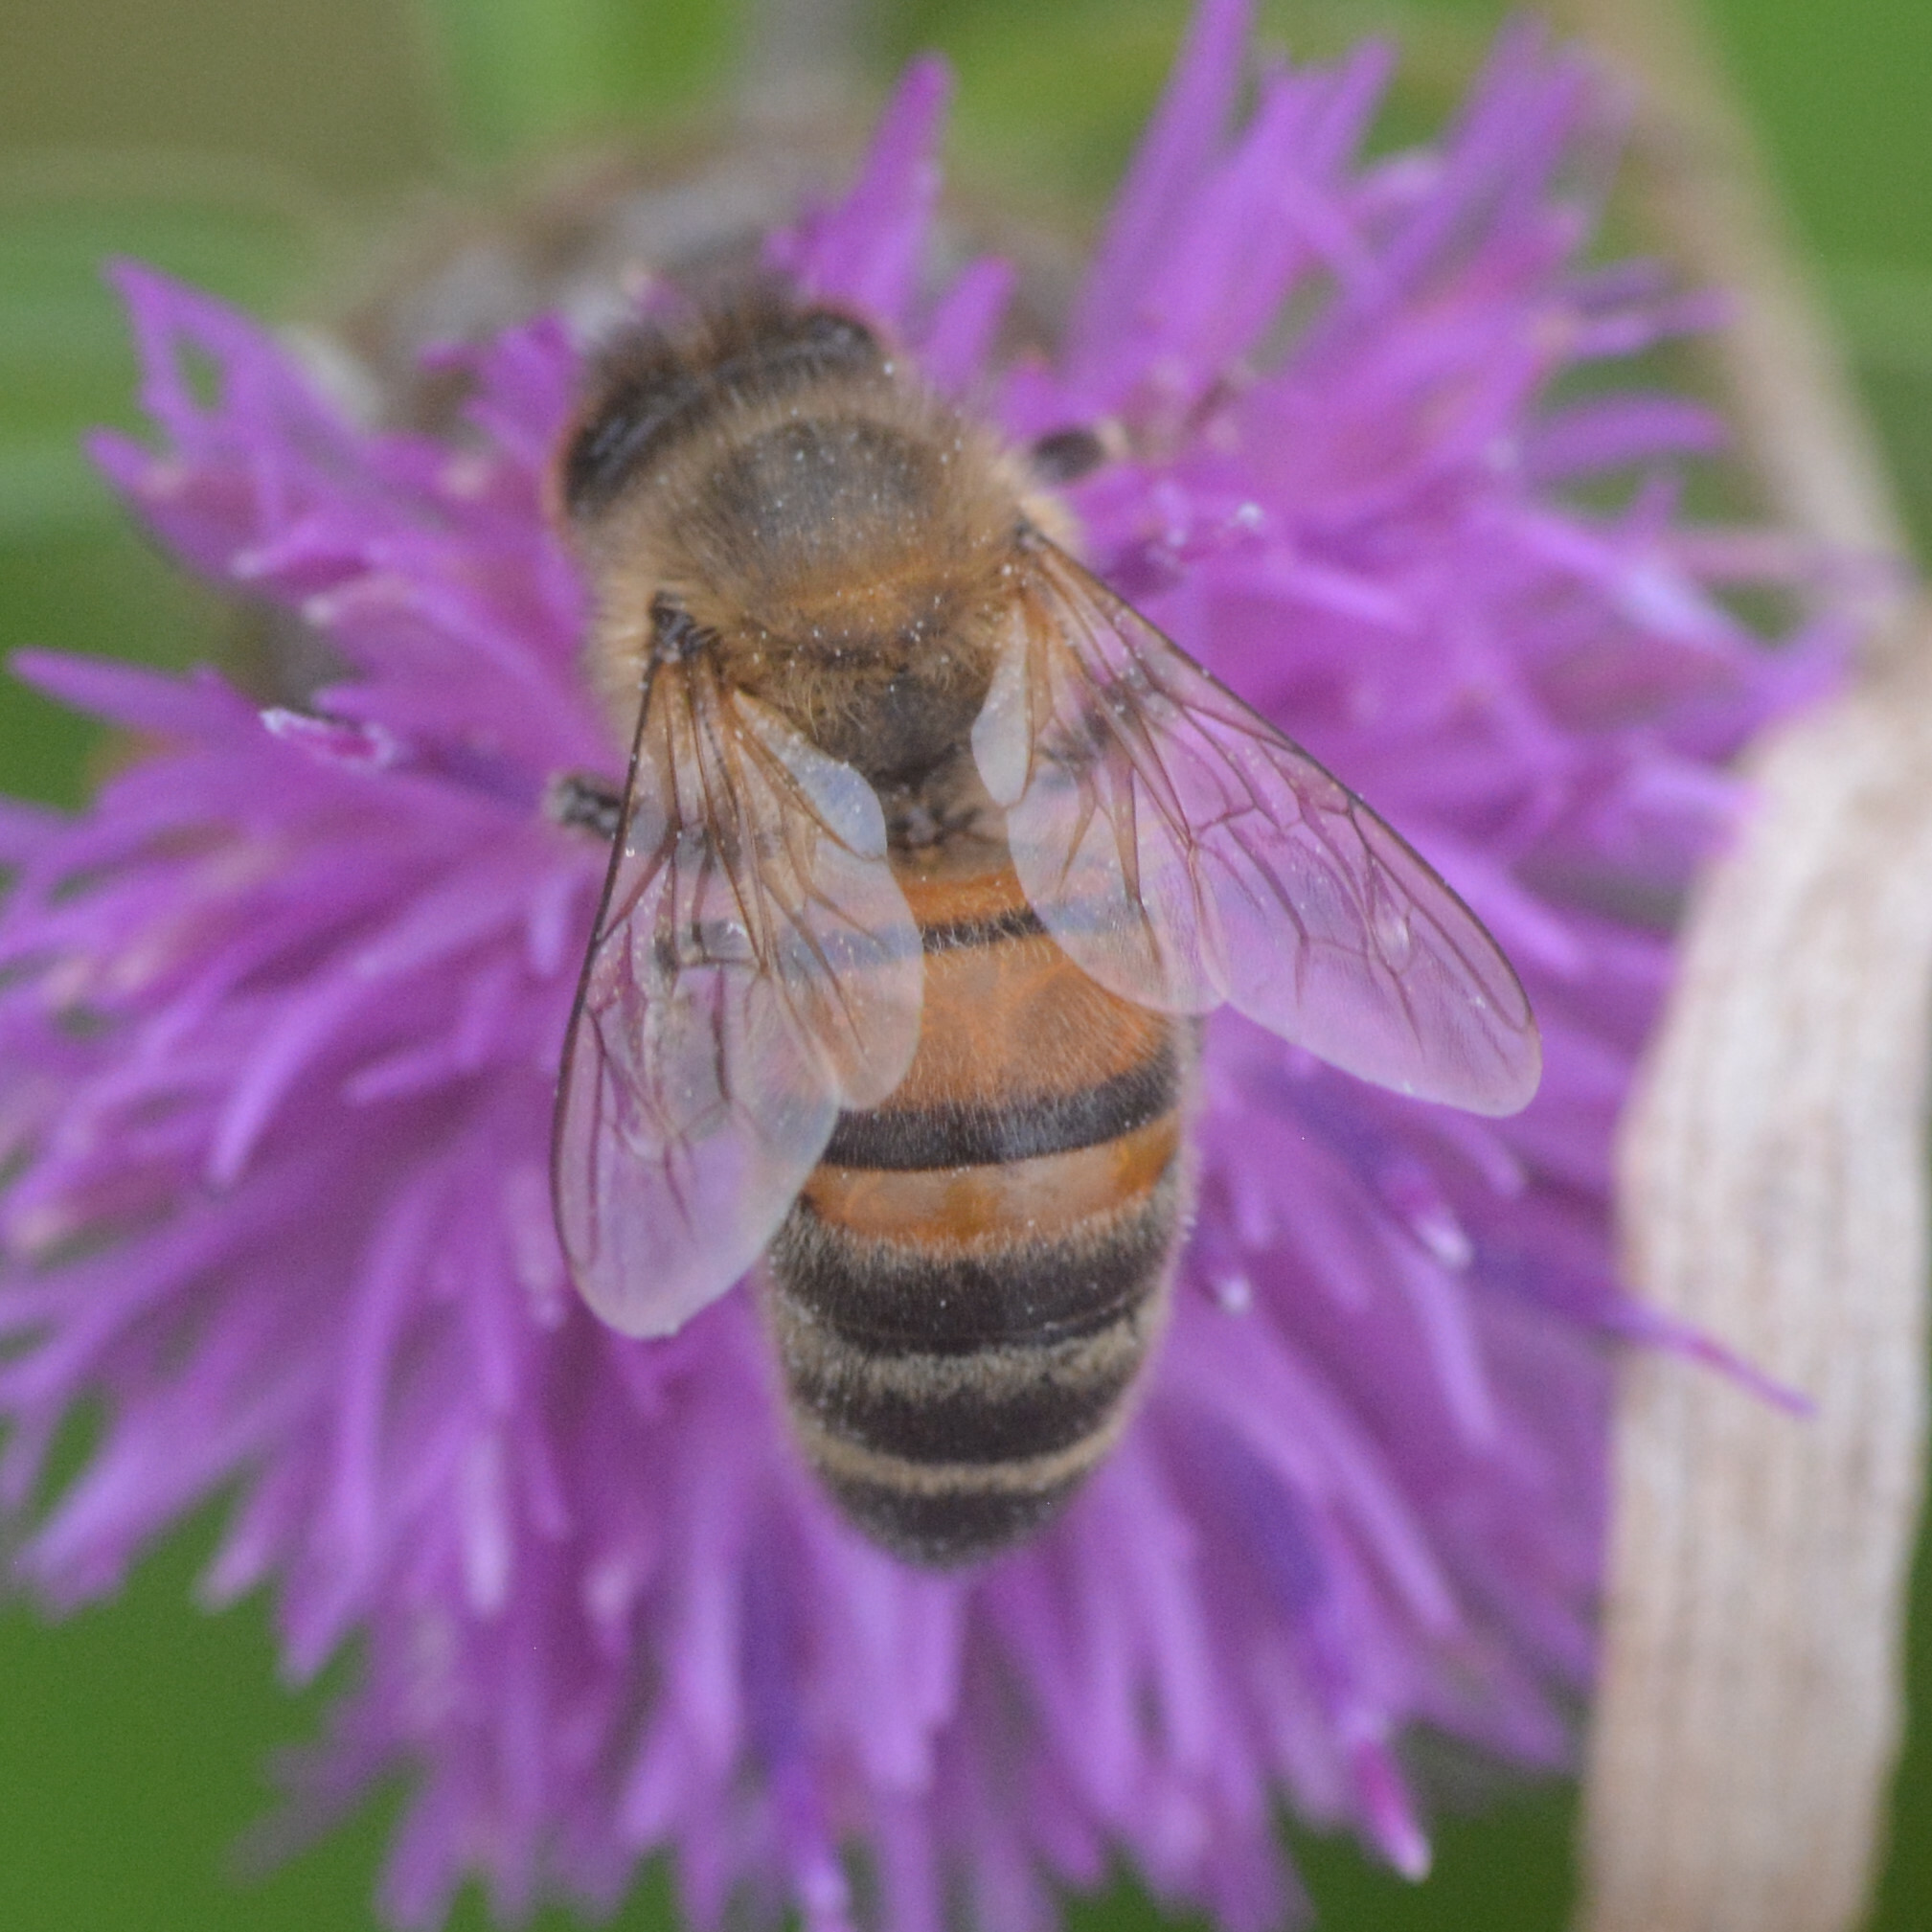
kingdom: Animalia
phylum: Arthropoda
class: Insecta
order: Hymenoptera
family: Apidae
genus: Apis
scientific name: Apis mellifera
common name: Honey bee
